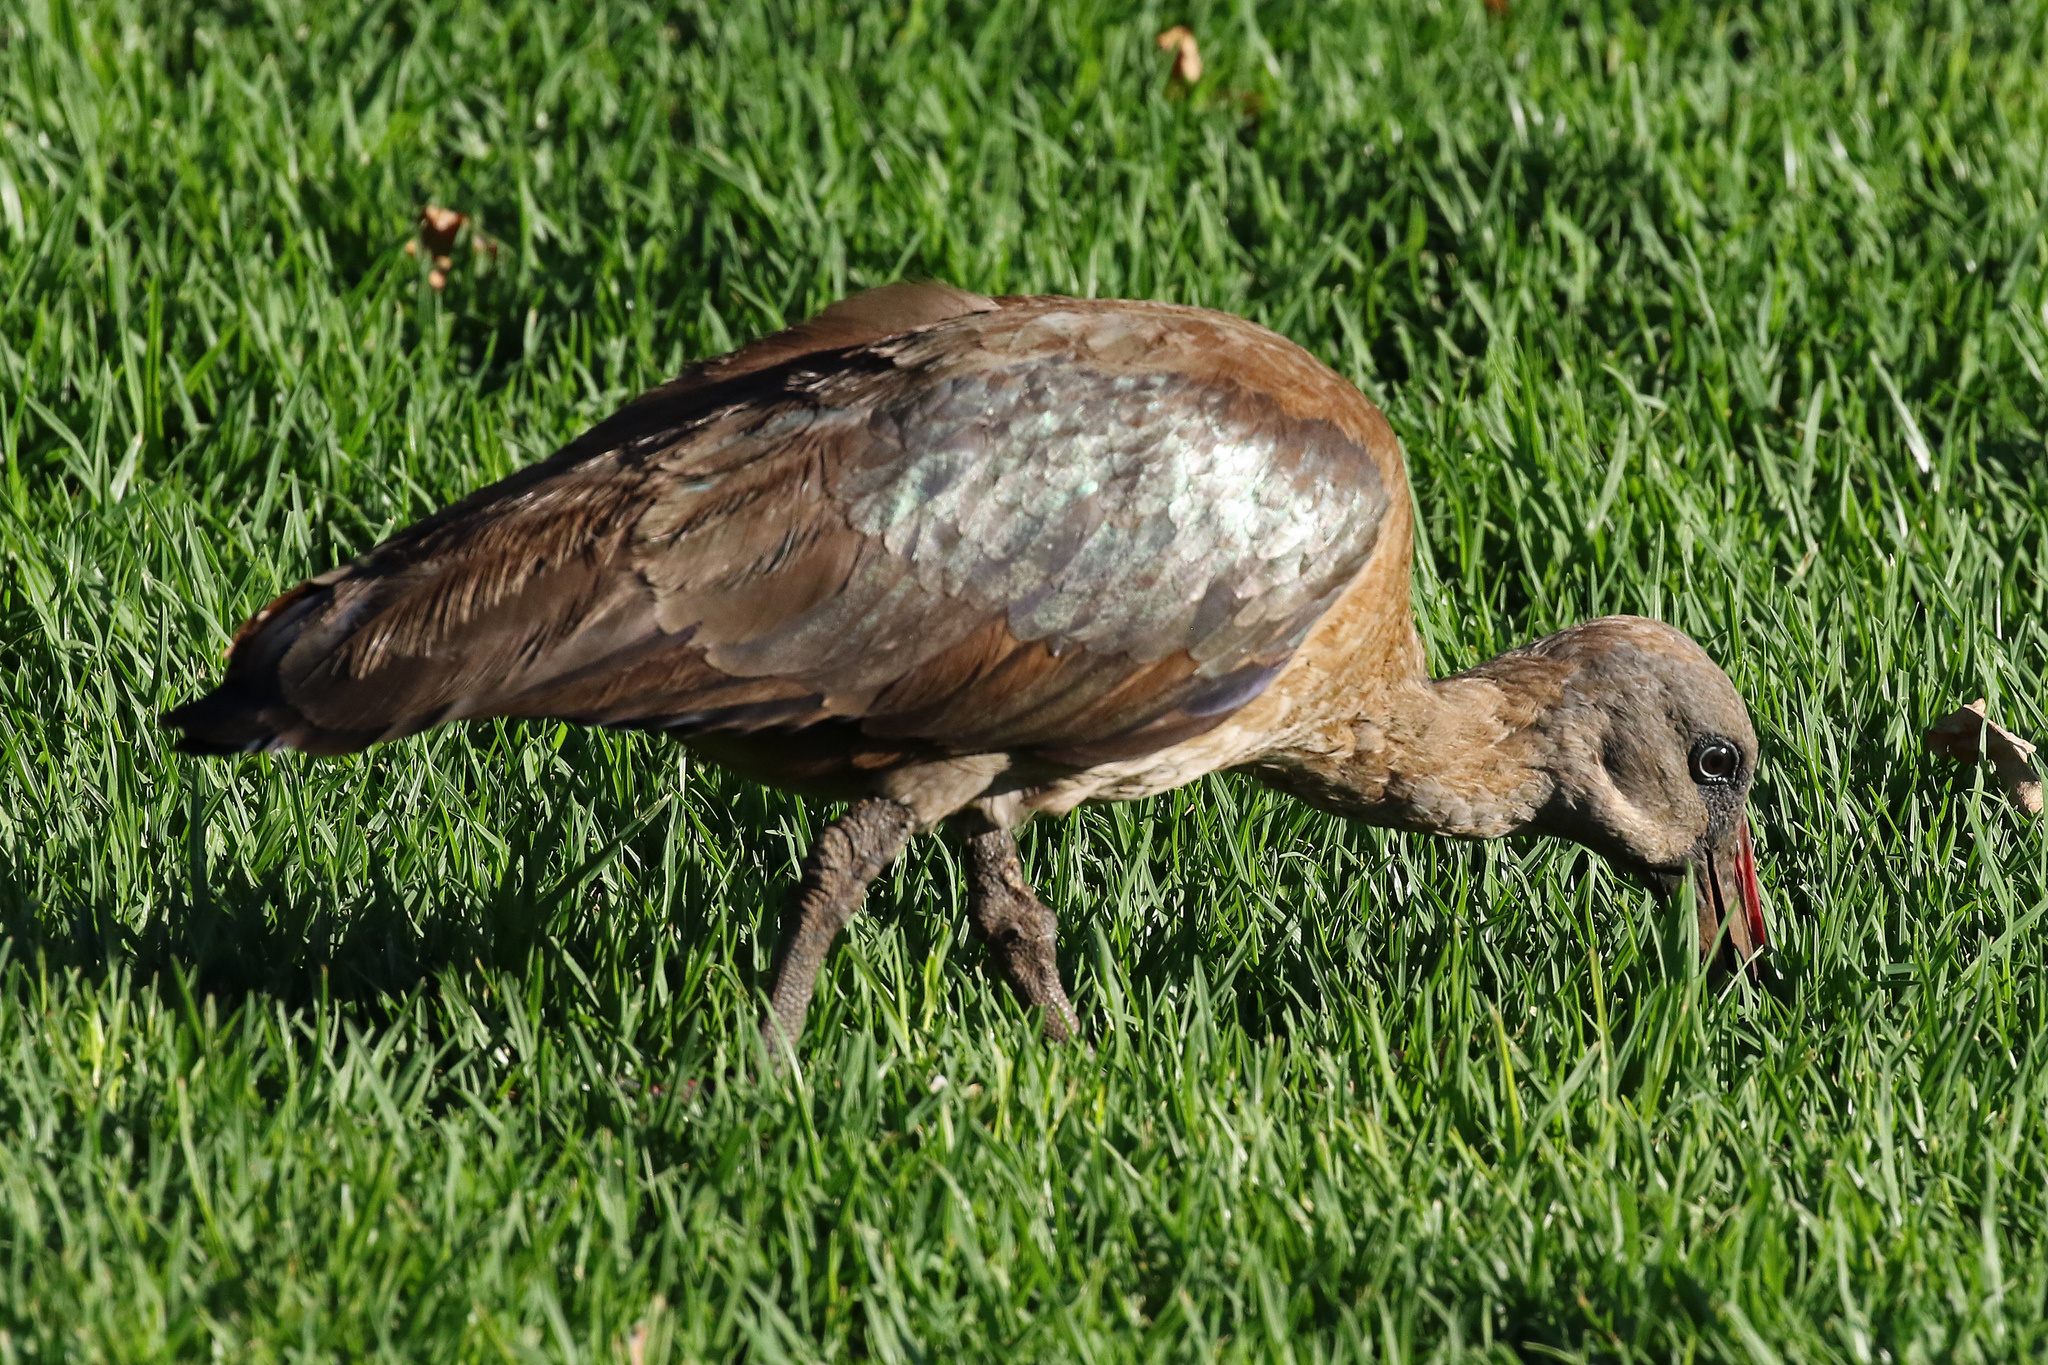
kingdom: Animalia
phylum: Chordata
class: Aves
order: Pelecaniformes
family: Threskiornithidae
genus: Bostrychia
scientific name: Bostrychia hagedash
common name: Hadada ibis
